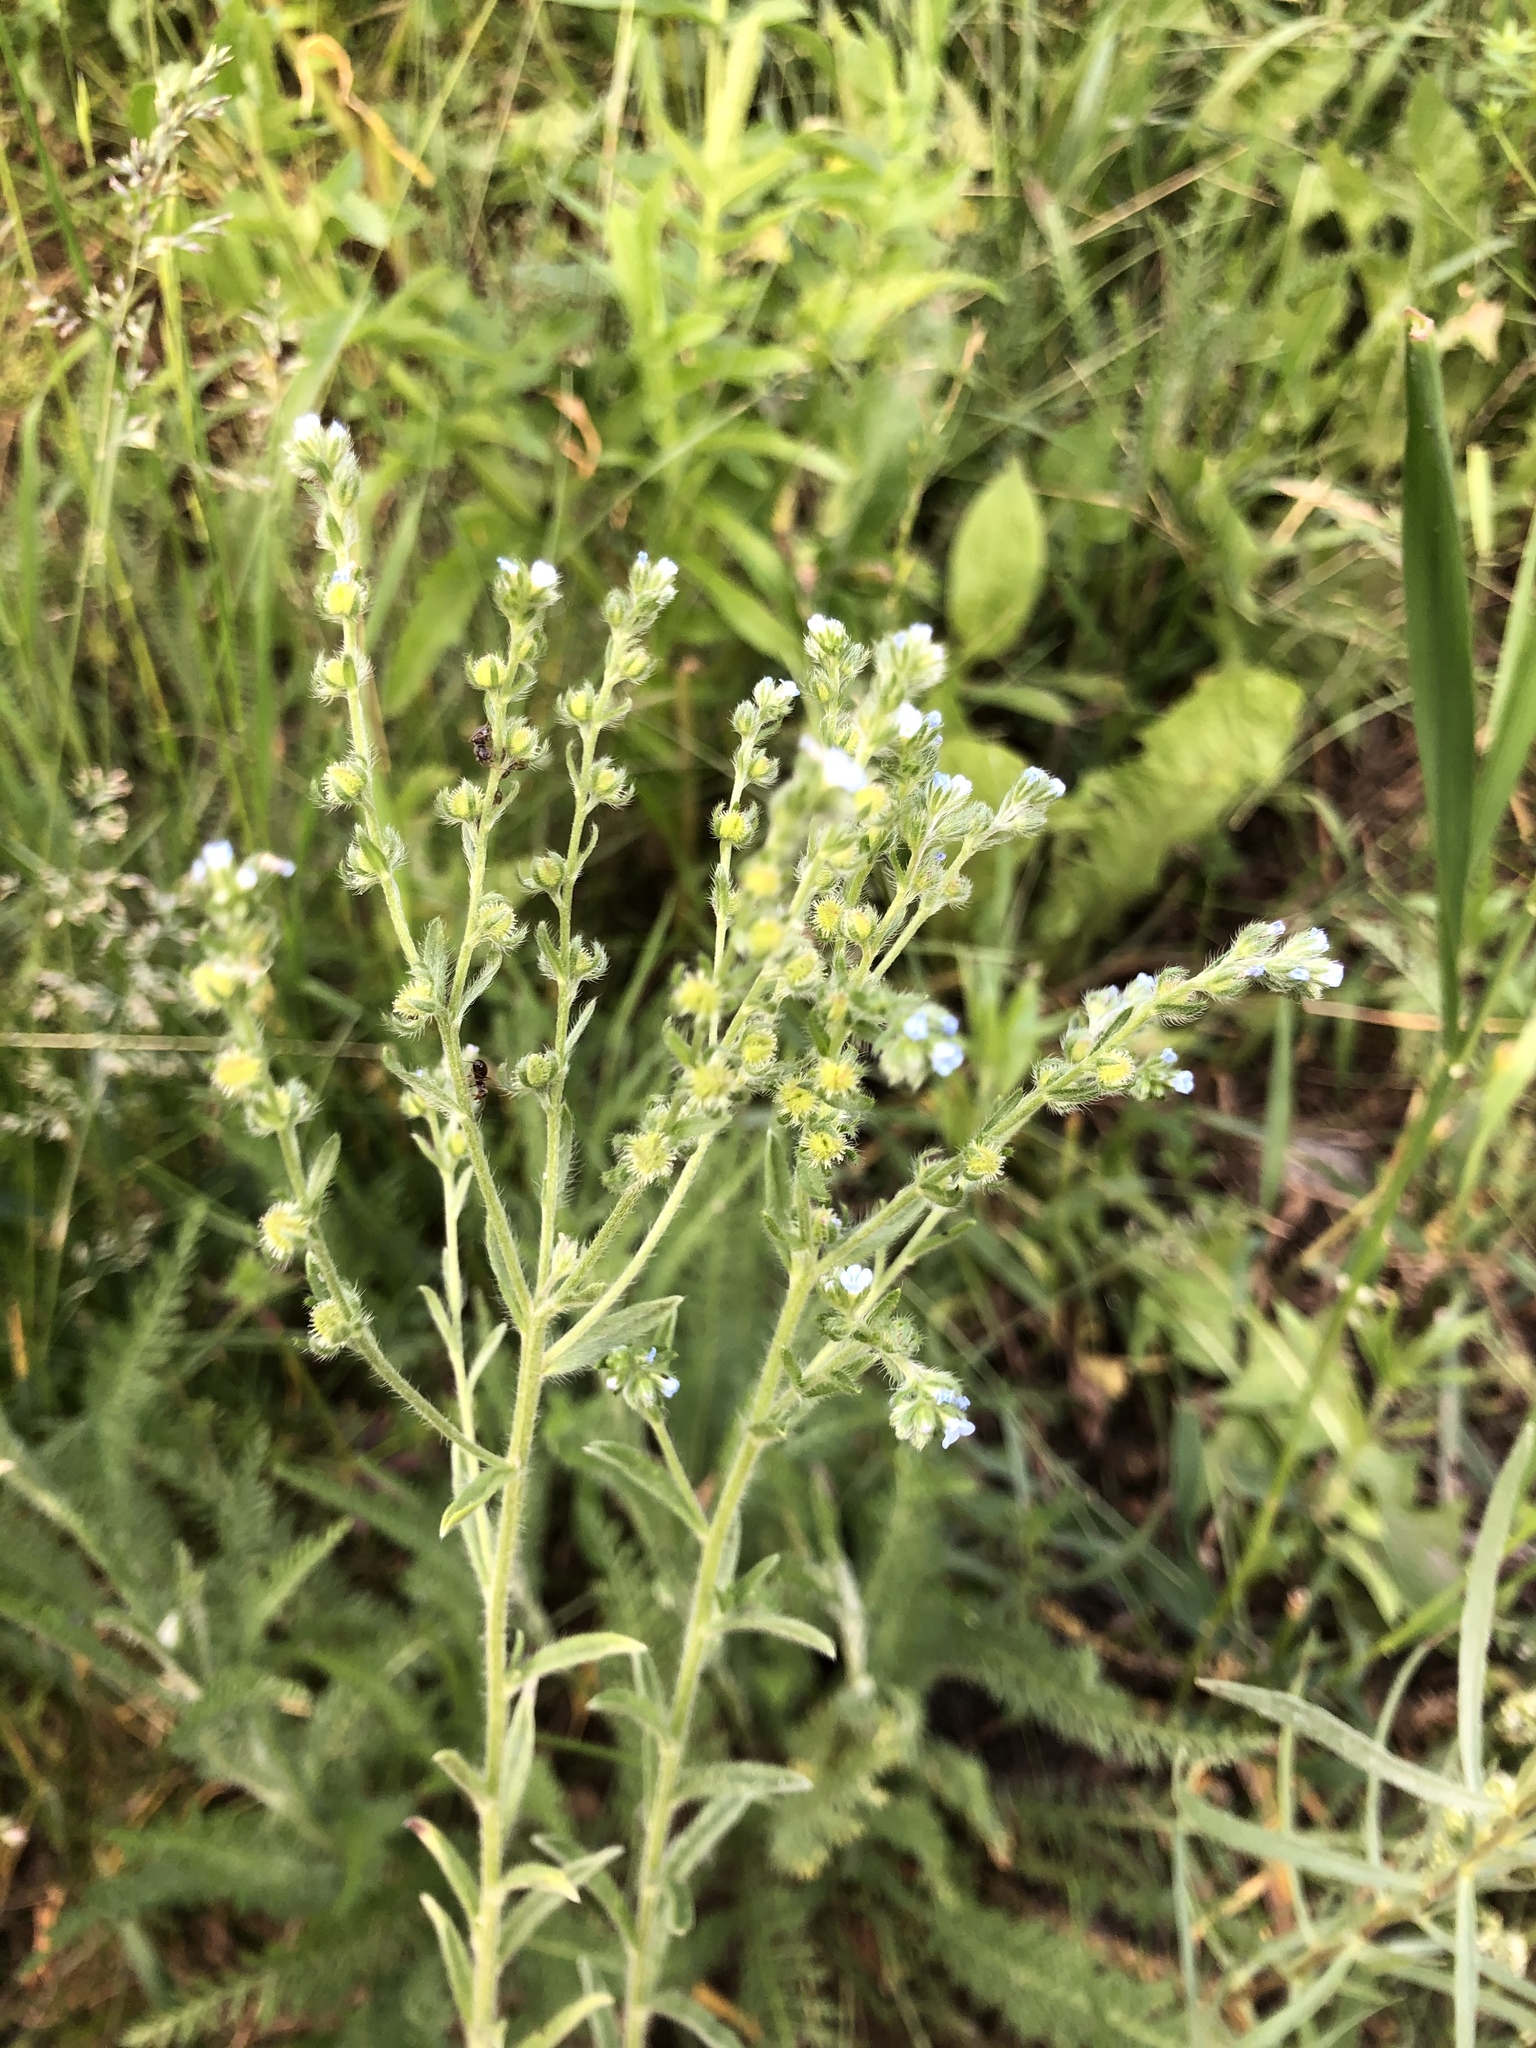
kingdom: Plantae
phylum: Tracheophyta
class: Magnoliopsida
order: Boraginales
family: Boraginaceae
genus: Lappula
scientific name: Lappula squarrosa
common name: European stickseed
